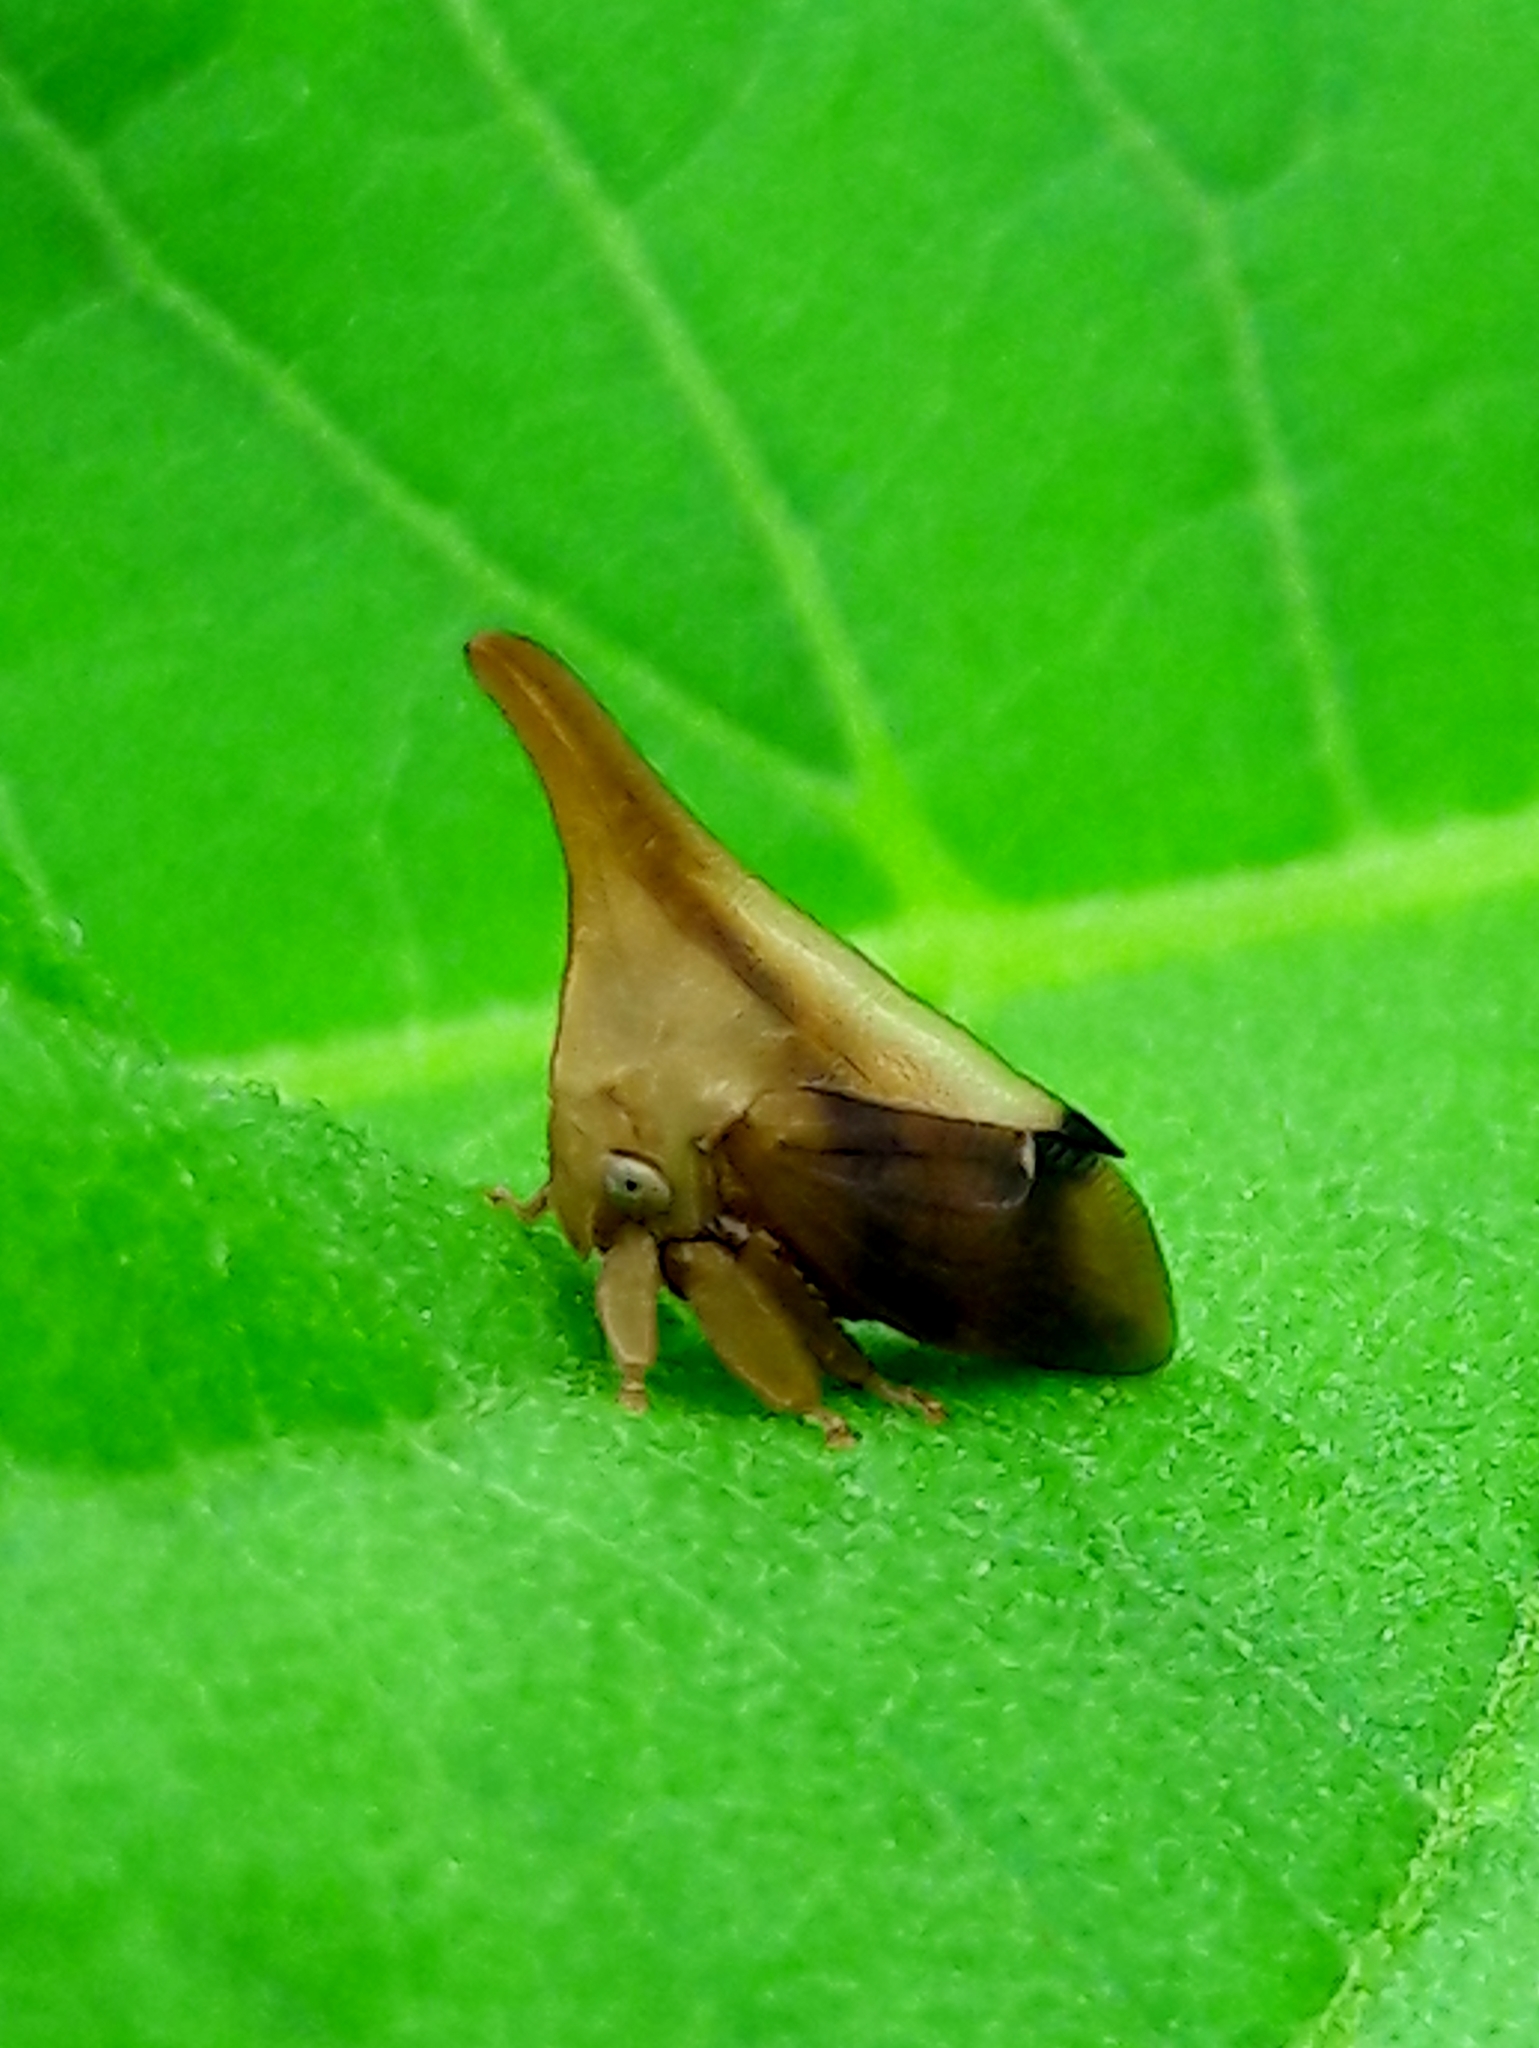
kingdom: Animalia
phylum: Arthropoda
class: Insecta
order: Hemiptera
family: Membracidae
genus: Enchenopa
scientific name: Enchenopa concolor
